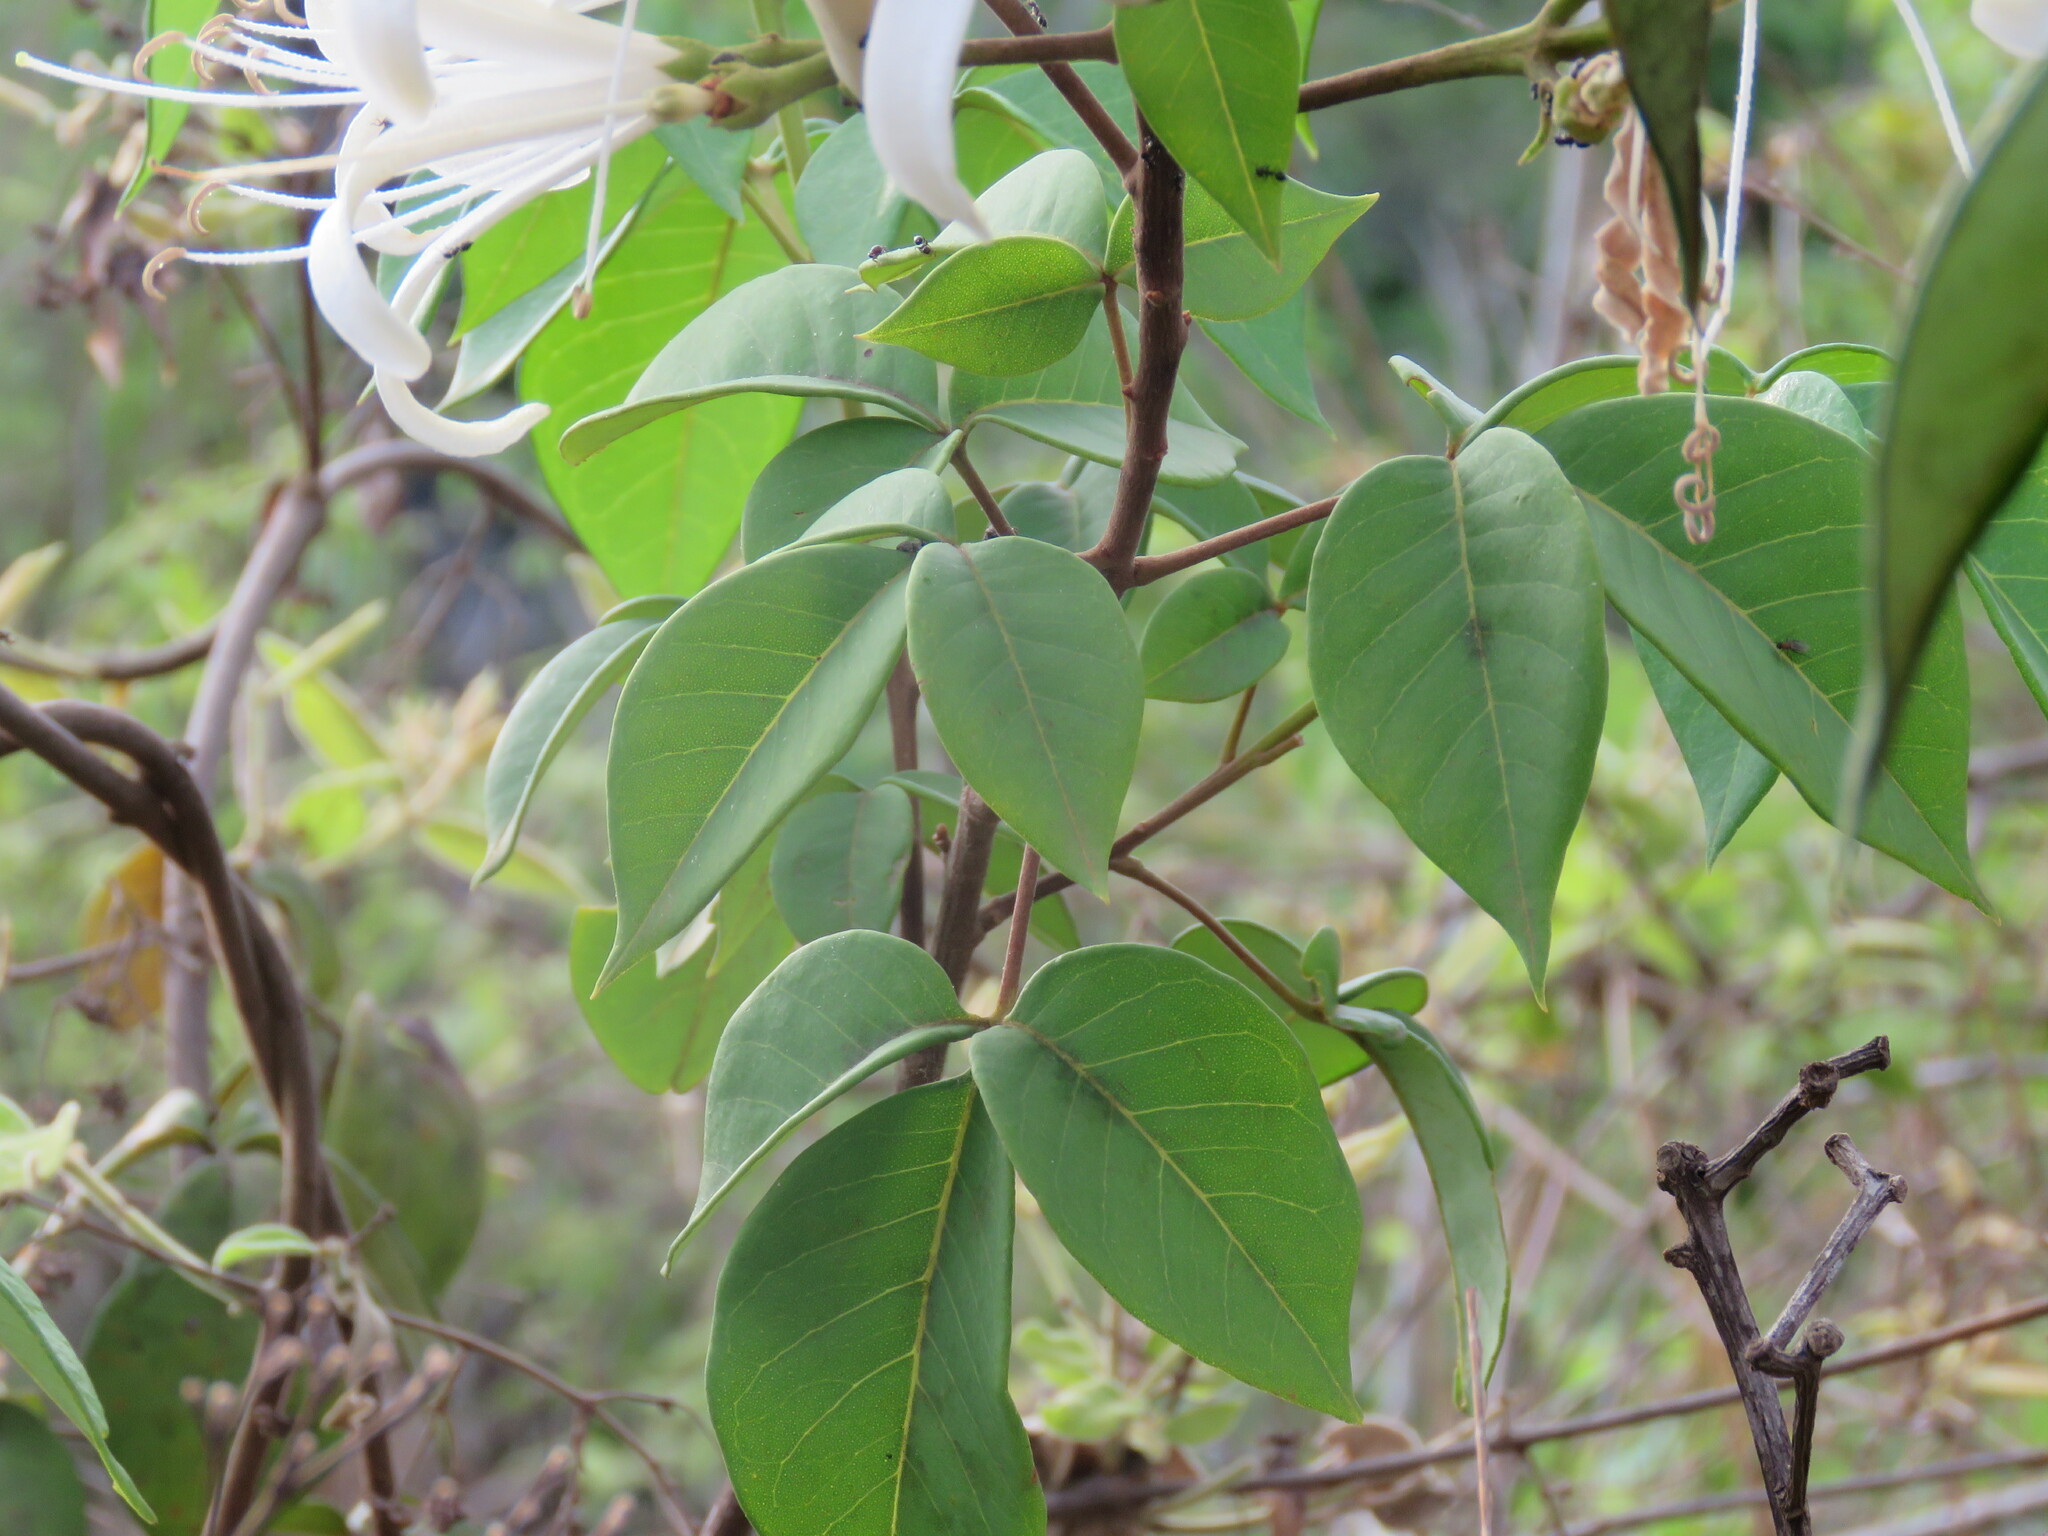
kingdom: Plantae
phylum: Tracheophyta
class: Magnoliopsida
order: Sapindales
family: Rutaceae
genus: Spiranthera
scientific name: Spiranthera odoratissima
